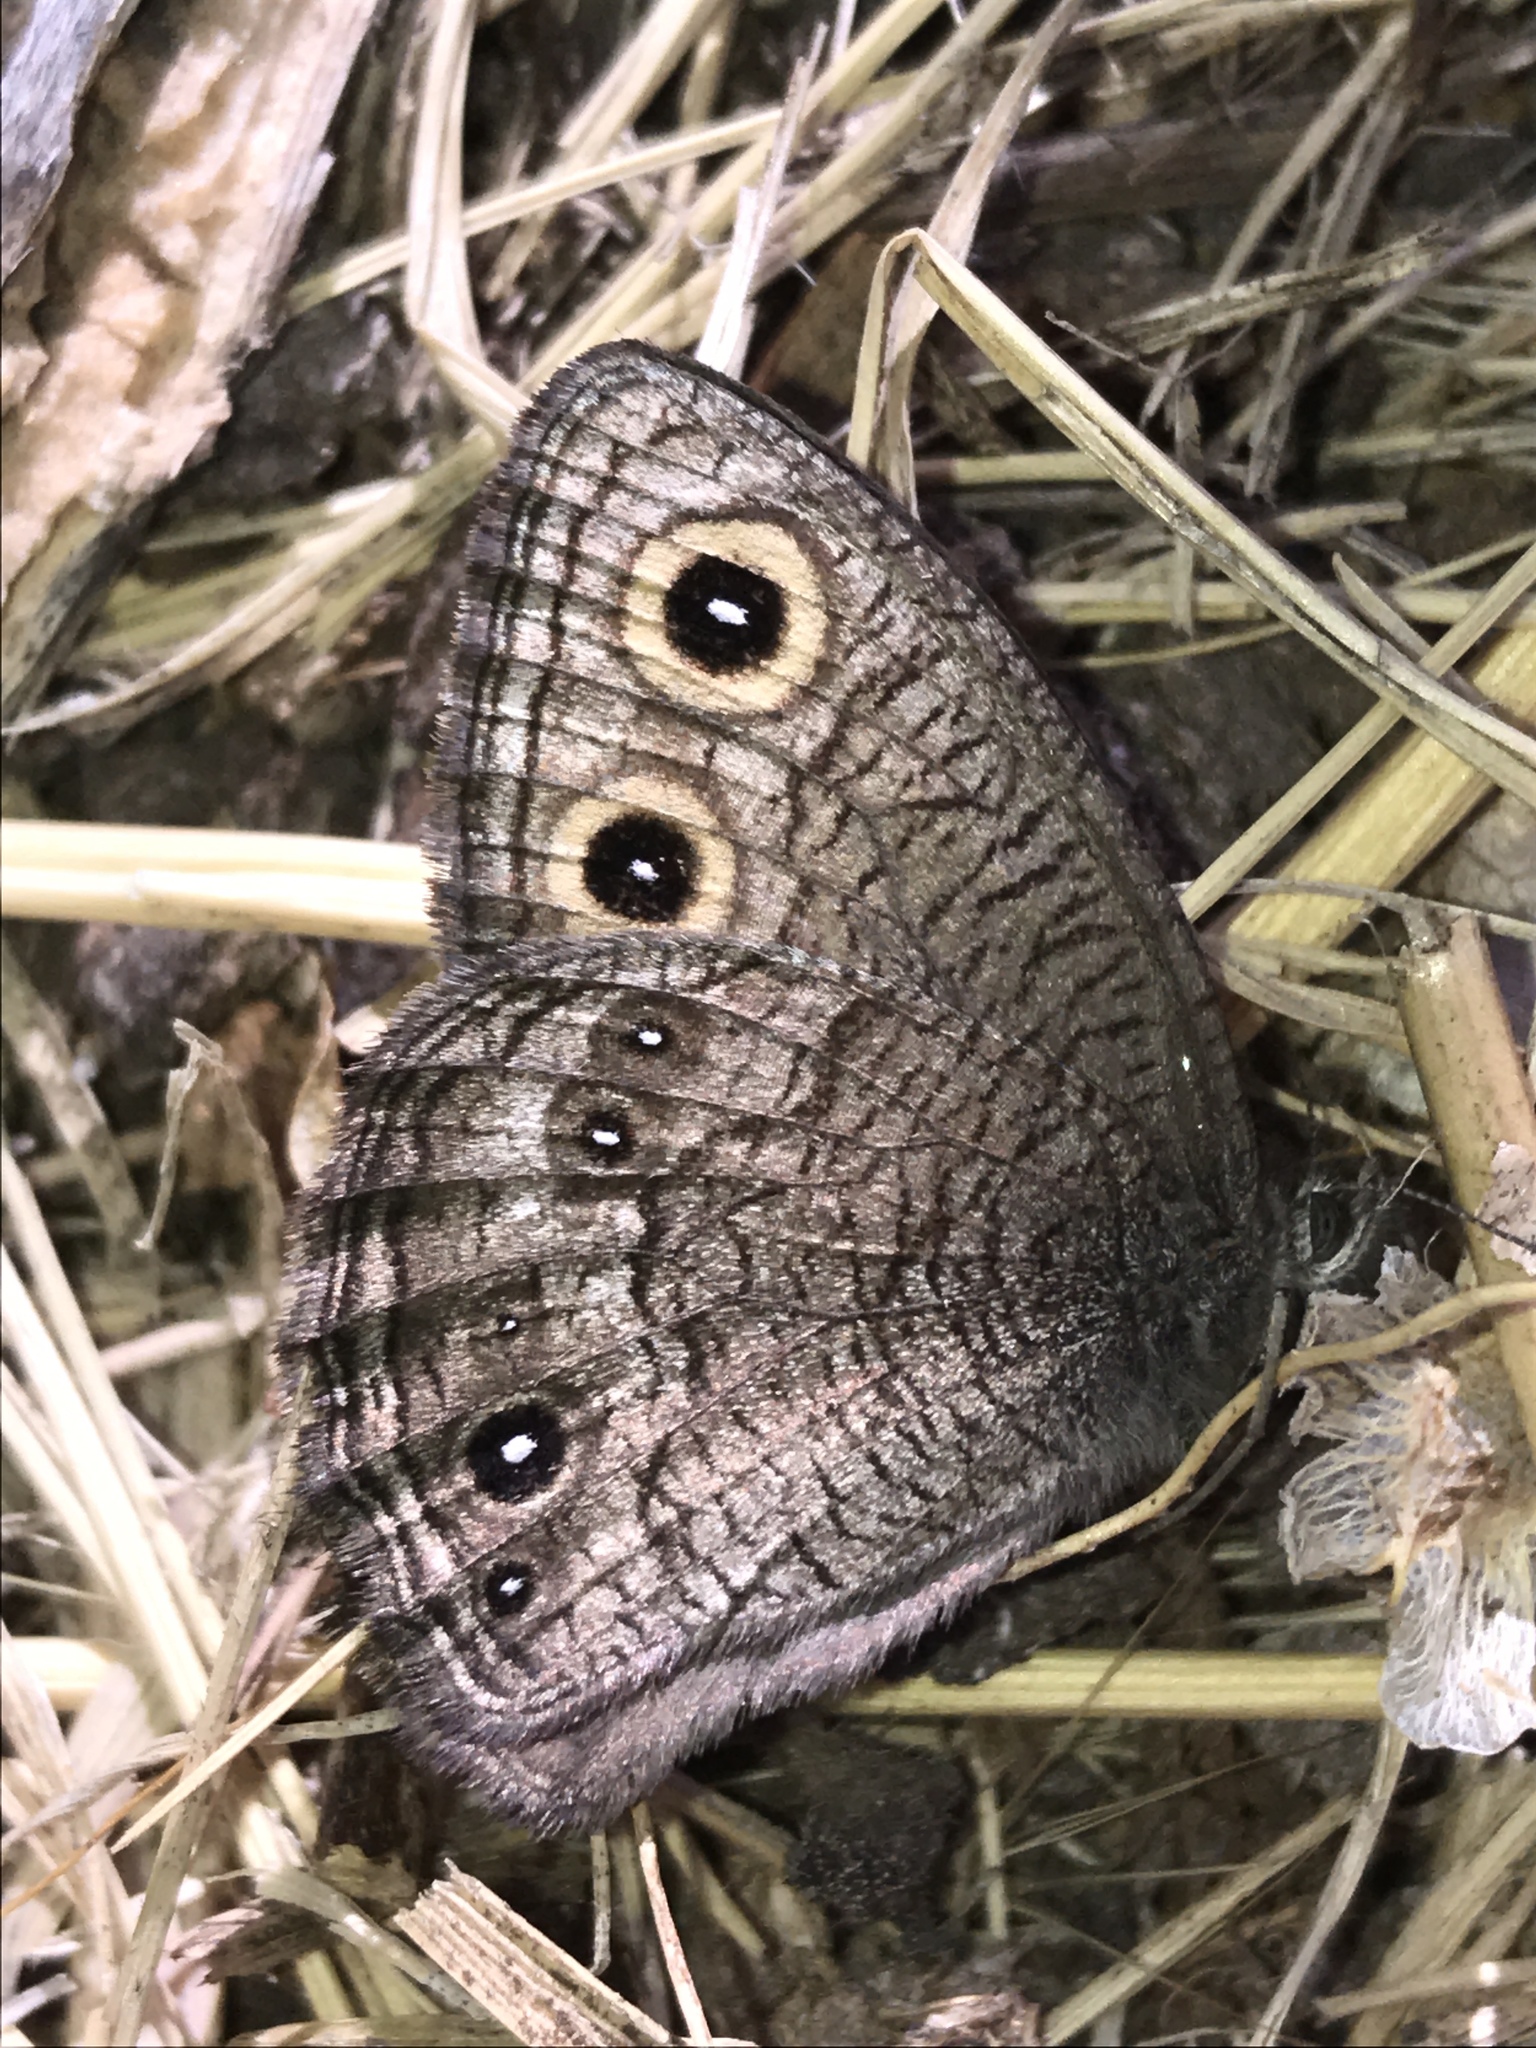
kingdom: Animalia
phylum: Arthropoda
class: Insecta
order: Lepidoptera
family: Nymphalidae
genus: Cercyonis
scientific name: Cercyonis sthenele
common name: Great basin wood-nymph
